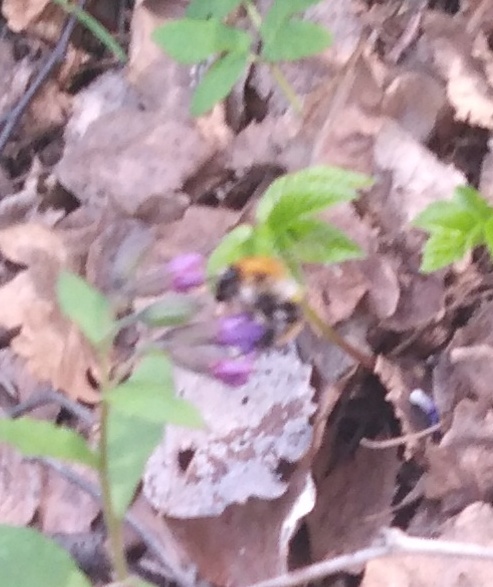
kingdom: Animalia
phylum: Arthropoda
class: Insecta
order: Hymenoptera
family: Apidae
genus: Bombus
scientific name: Bombus pascuorum
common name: Common carder bee
